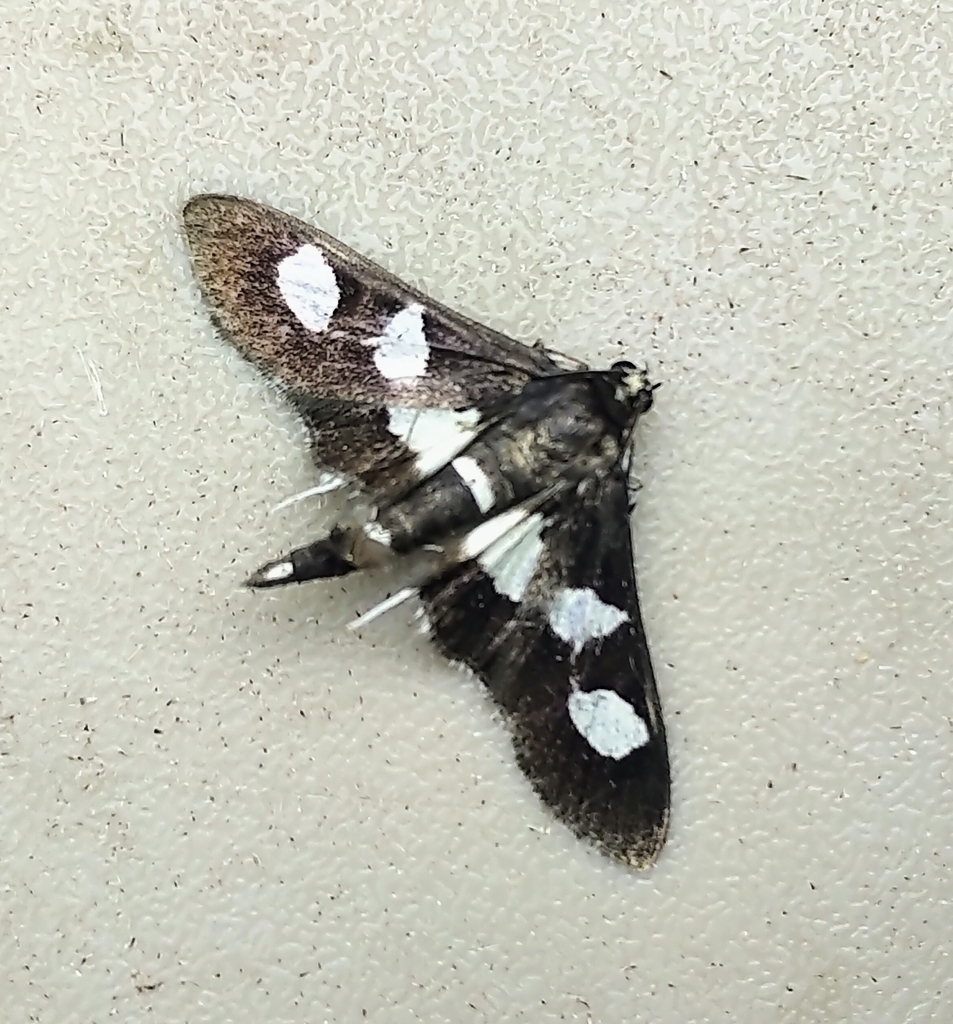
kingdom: Animalia
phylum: Arthropoda
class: Insecta
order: Lepidoptera
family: Crambidae
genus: Desmia
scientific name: Desmia funeralis
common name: Grape leaf folder moth
